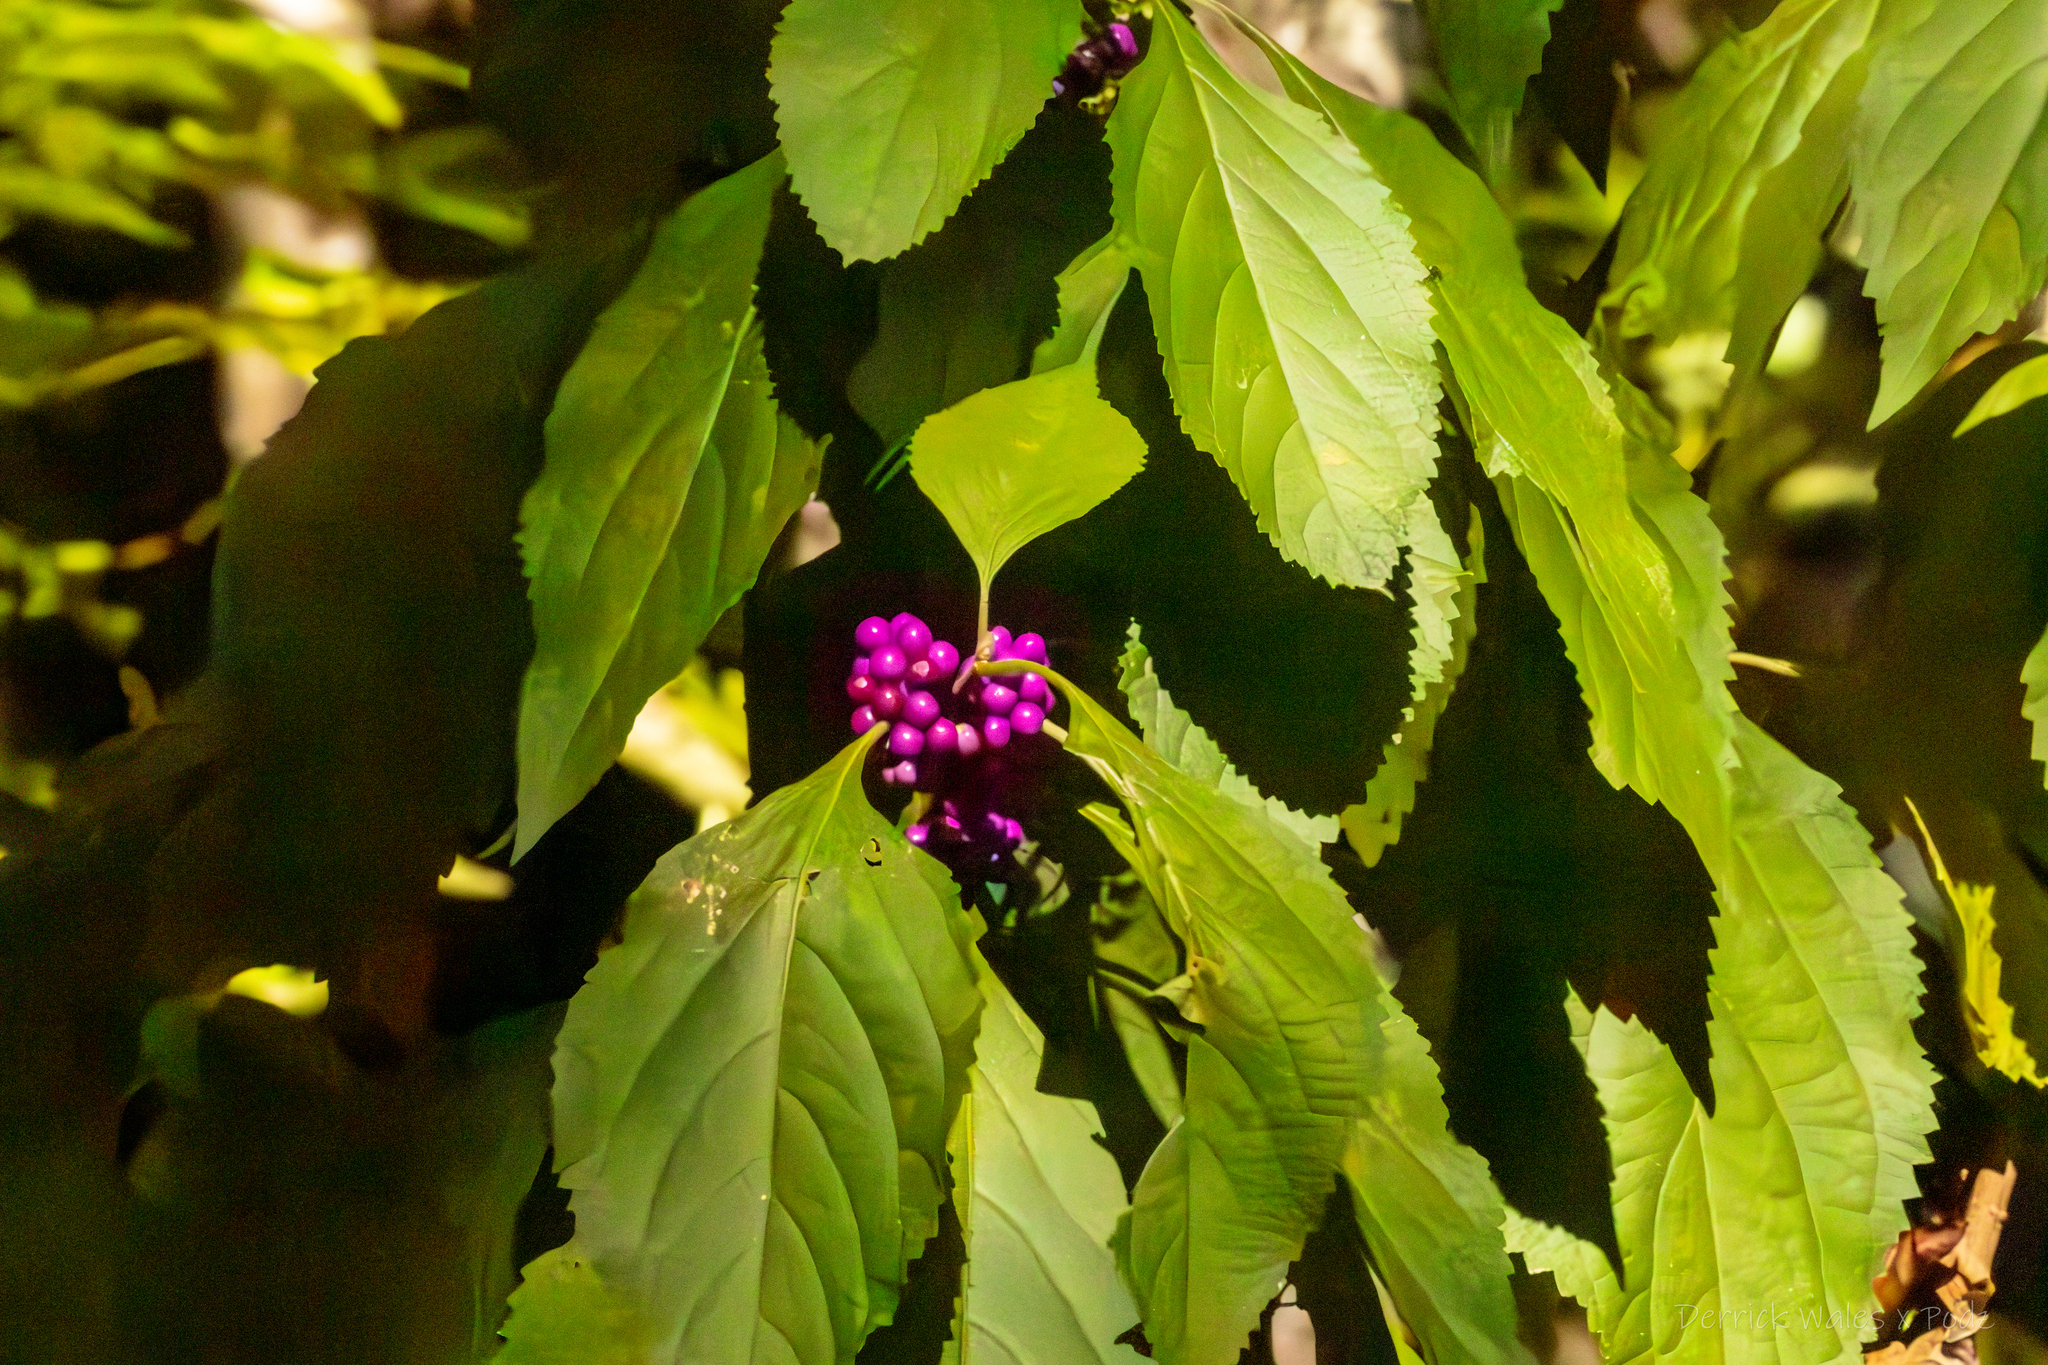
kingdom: Plantae
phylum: Tracheophyta
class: Magnoliopsida
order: Lamiales
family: Lamiaceae
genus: Callicarpa
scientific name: Callicarpa americana
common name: American beautyberry
